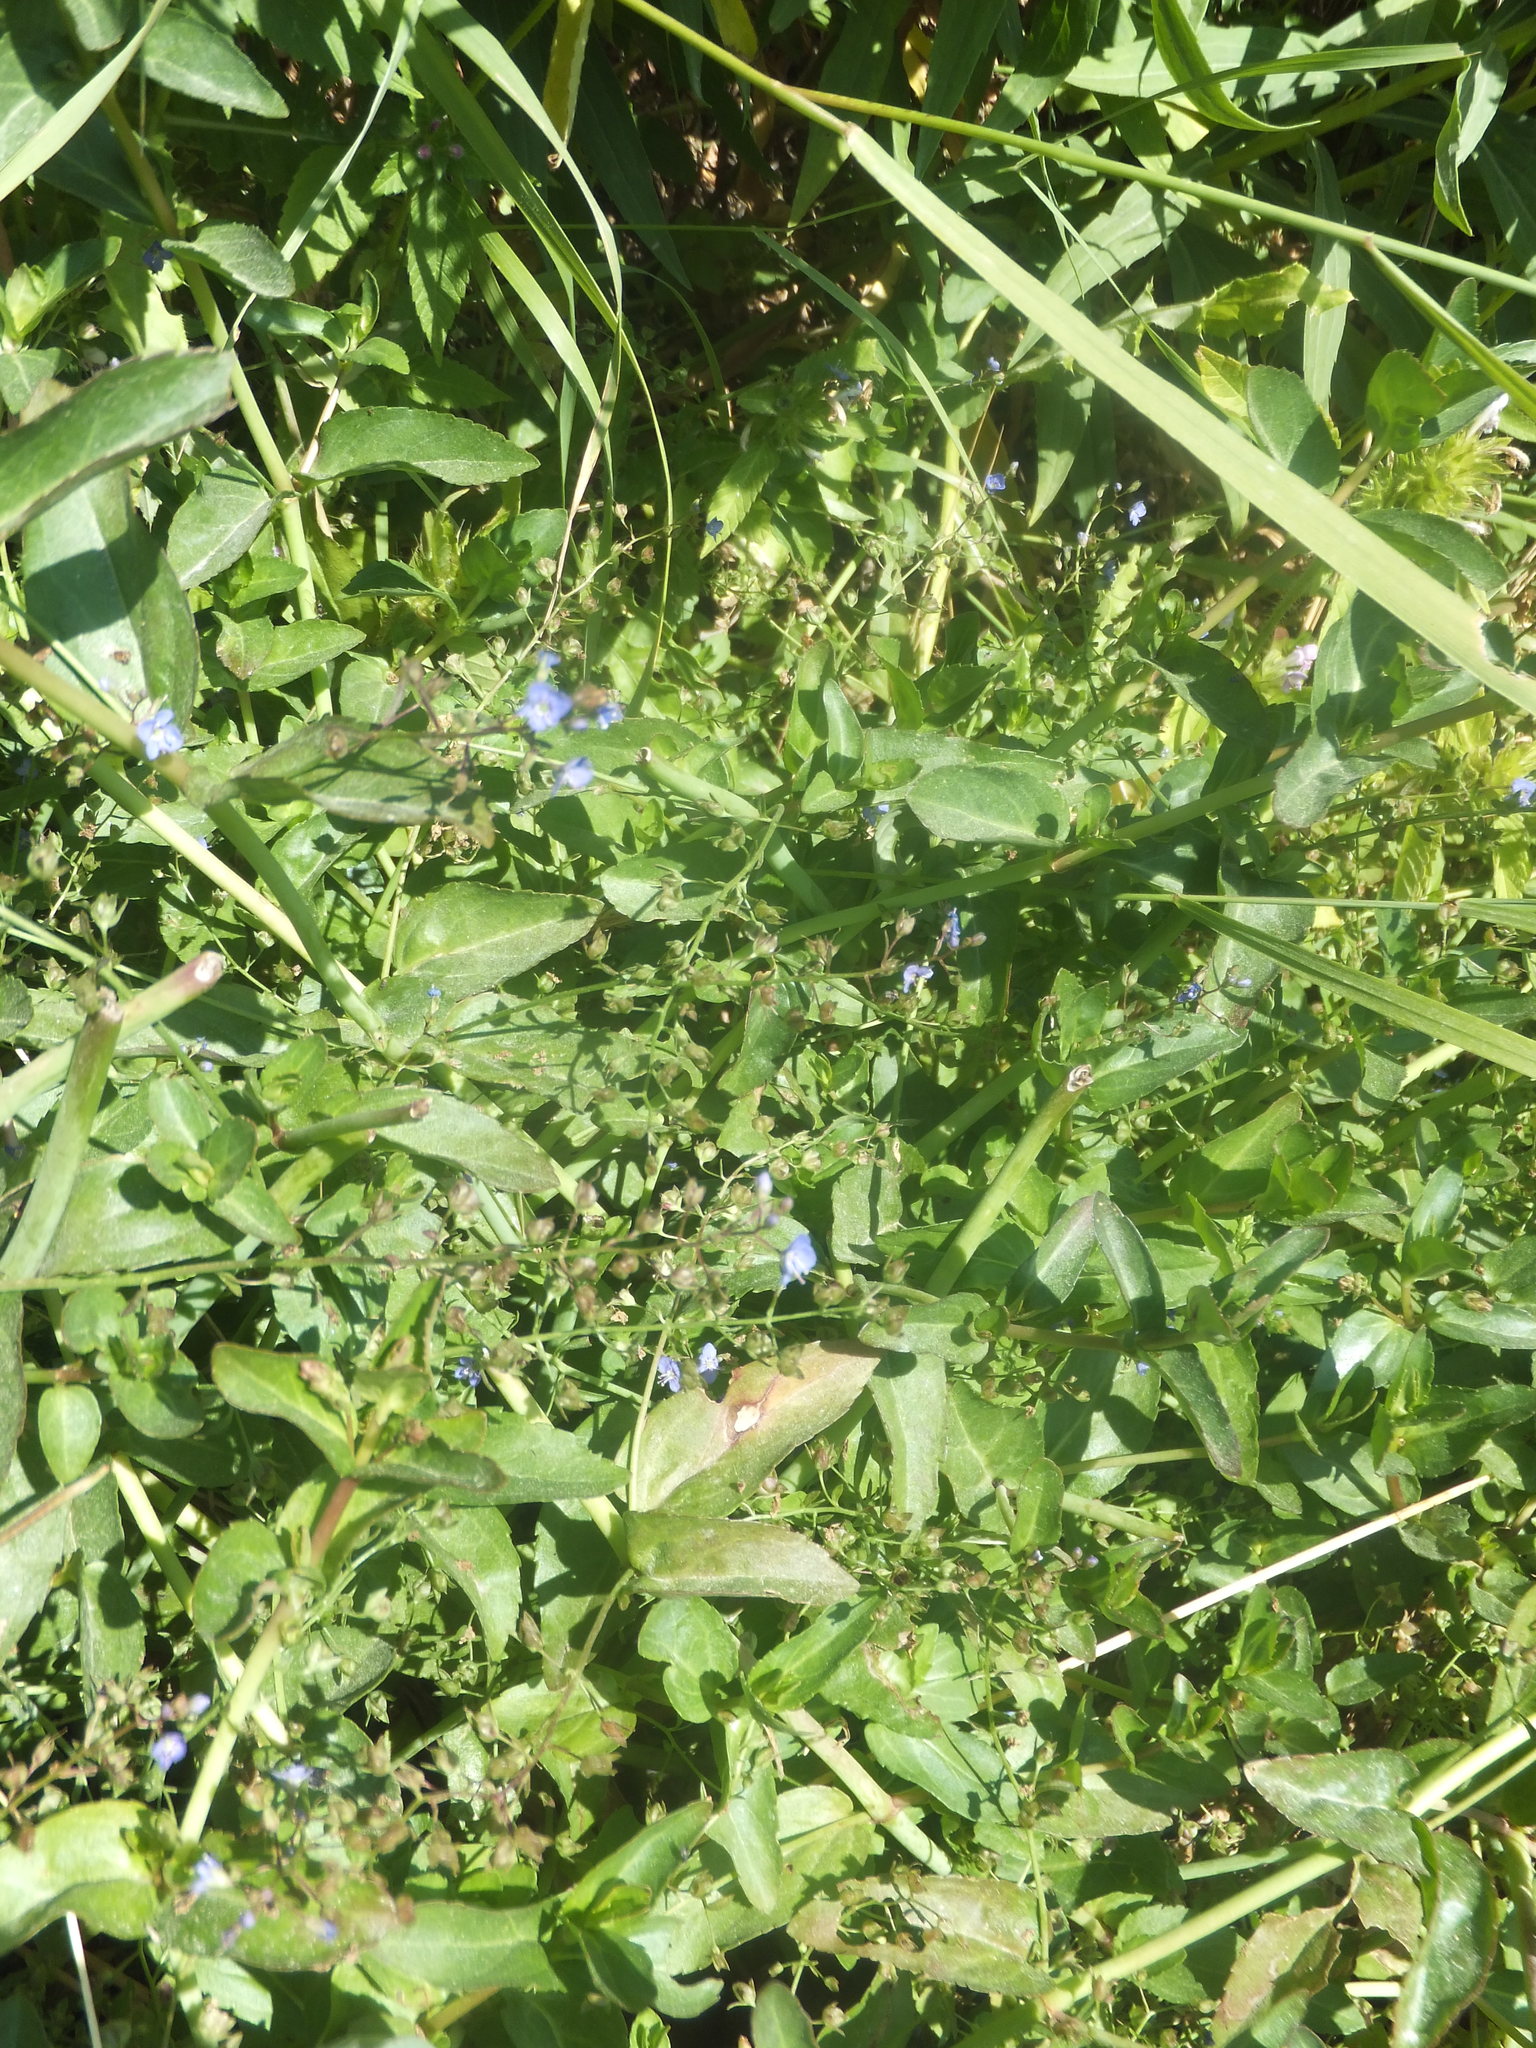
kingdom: Plantae
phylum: Tracheophyta
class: Magnoliopsida
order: Lamiales
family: Plantaginaceae
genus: Veronica
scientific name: Veronica americana
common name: American brooklime
